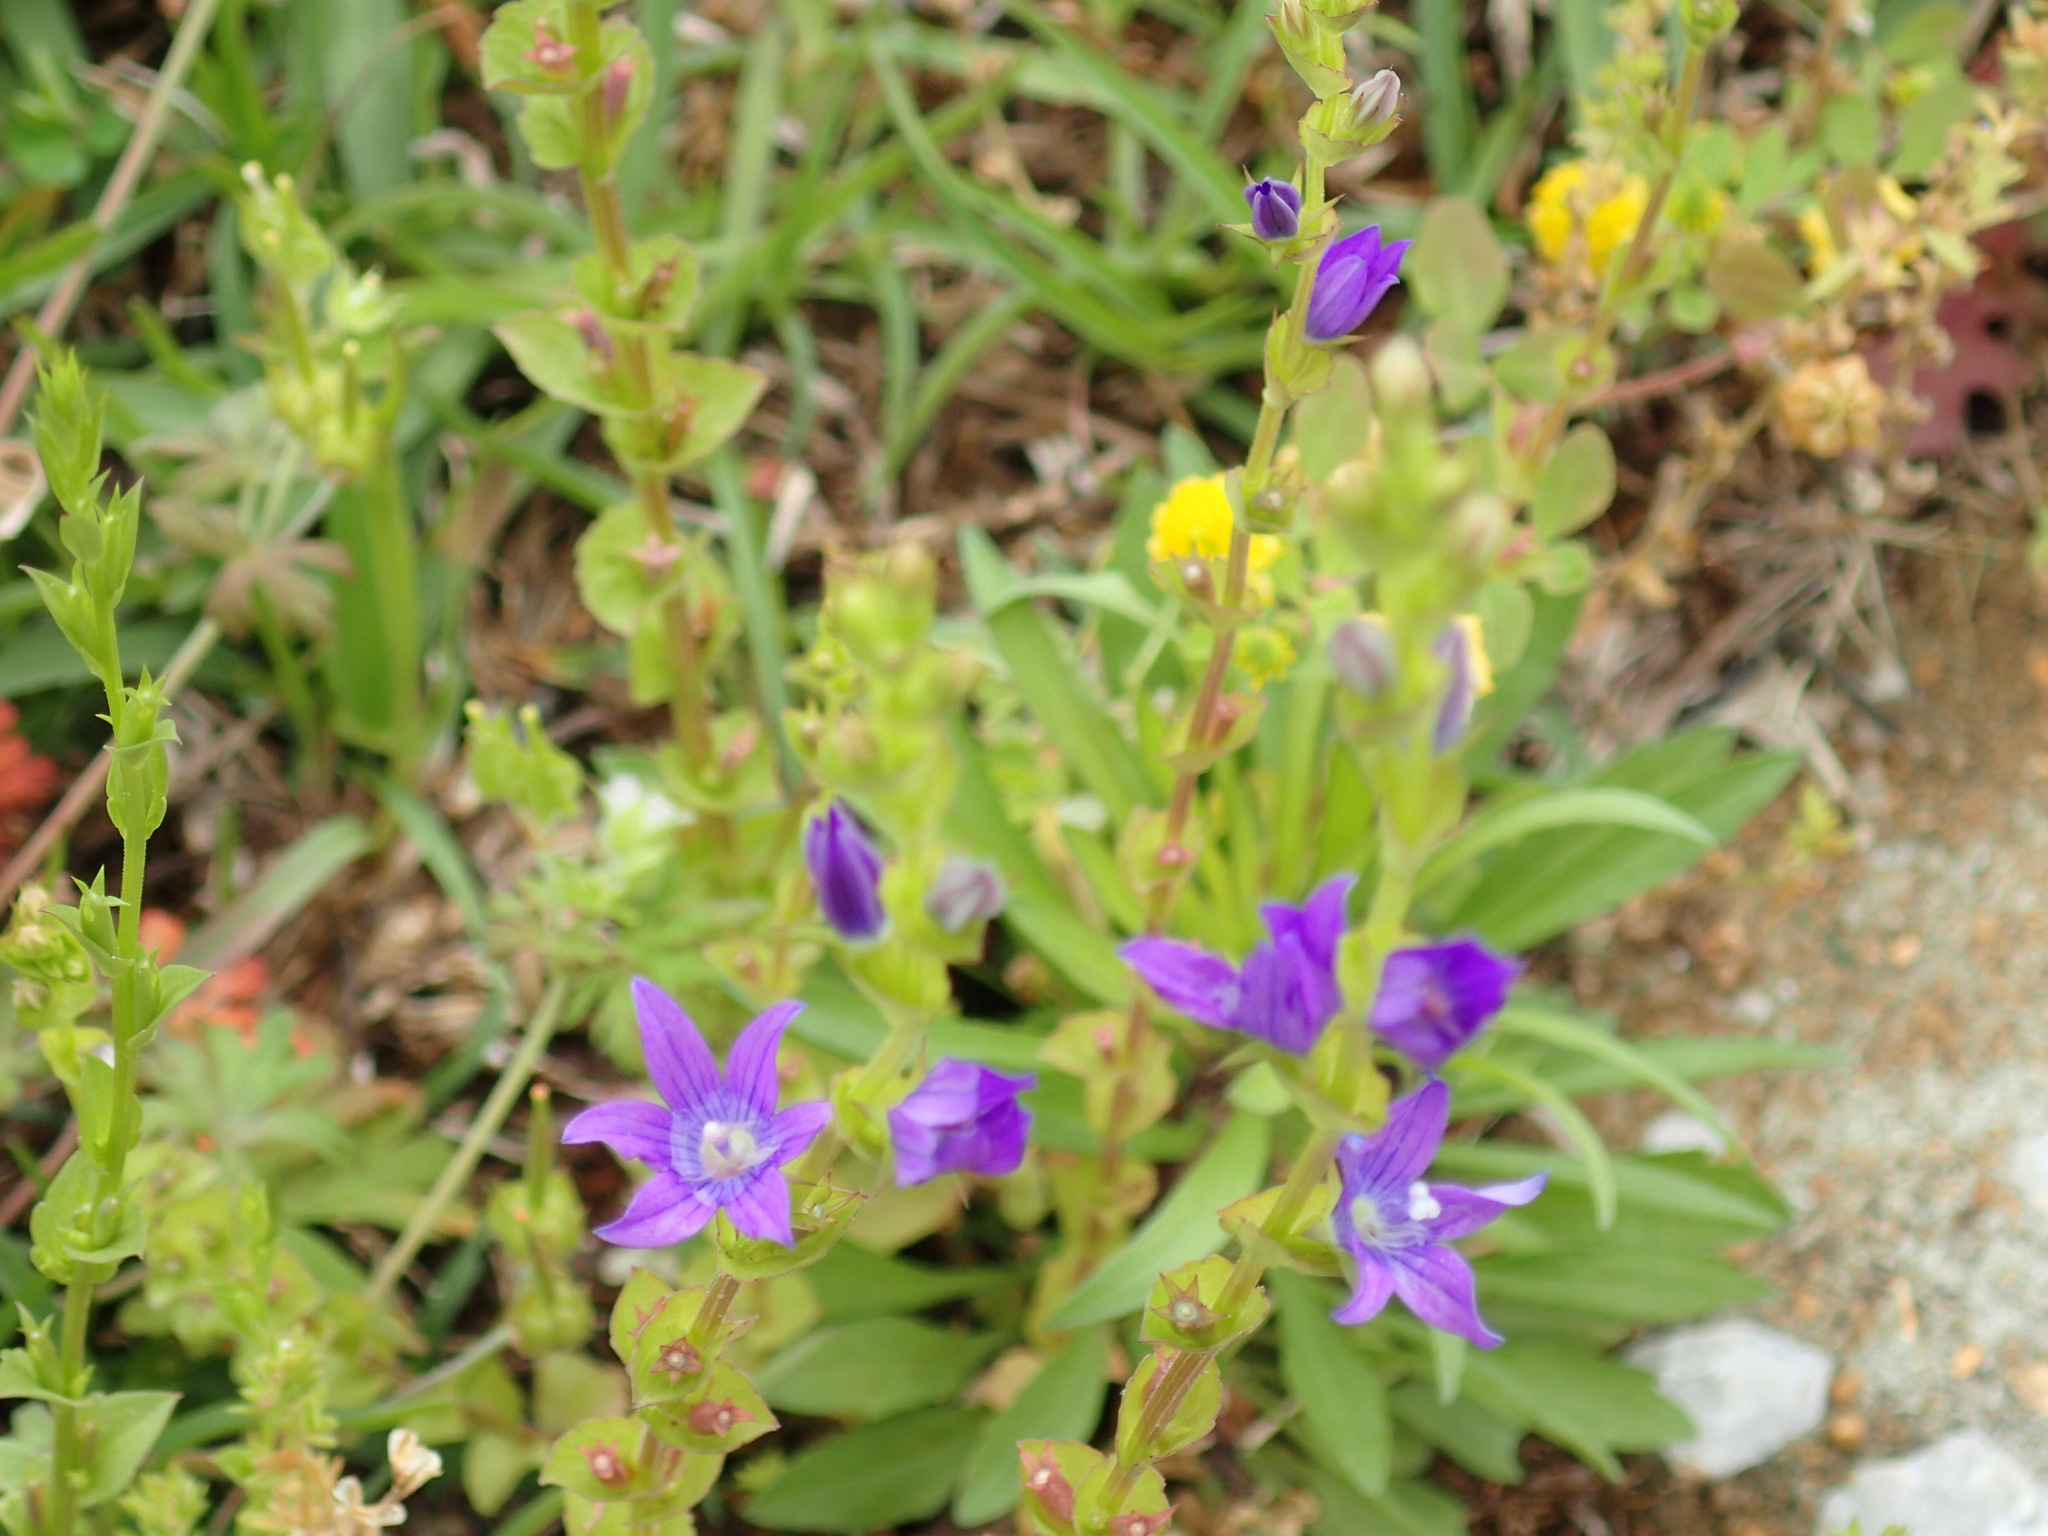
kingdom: Plantae
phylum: Tracheophyta
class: Magnoliopsida
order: Asterales
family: Campanulaceae
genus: Triodanis
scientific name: Triodanis perfoliata
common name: Clasping venus' looking-glass
